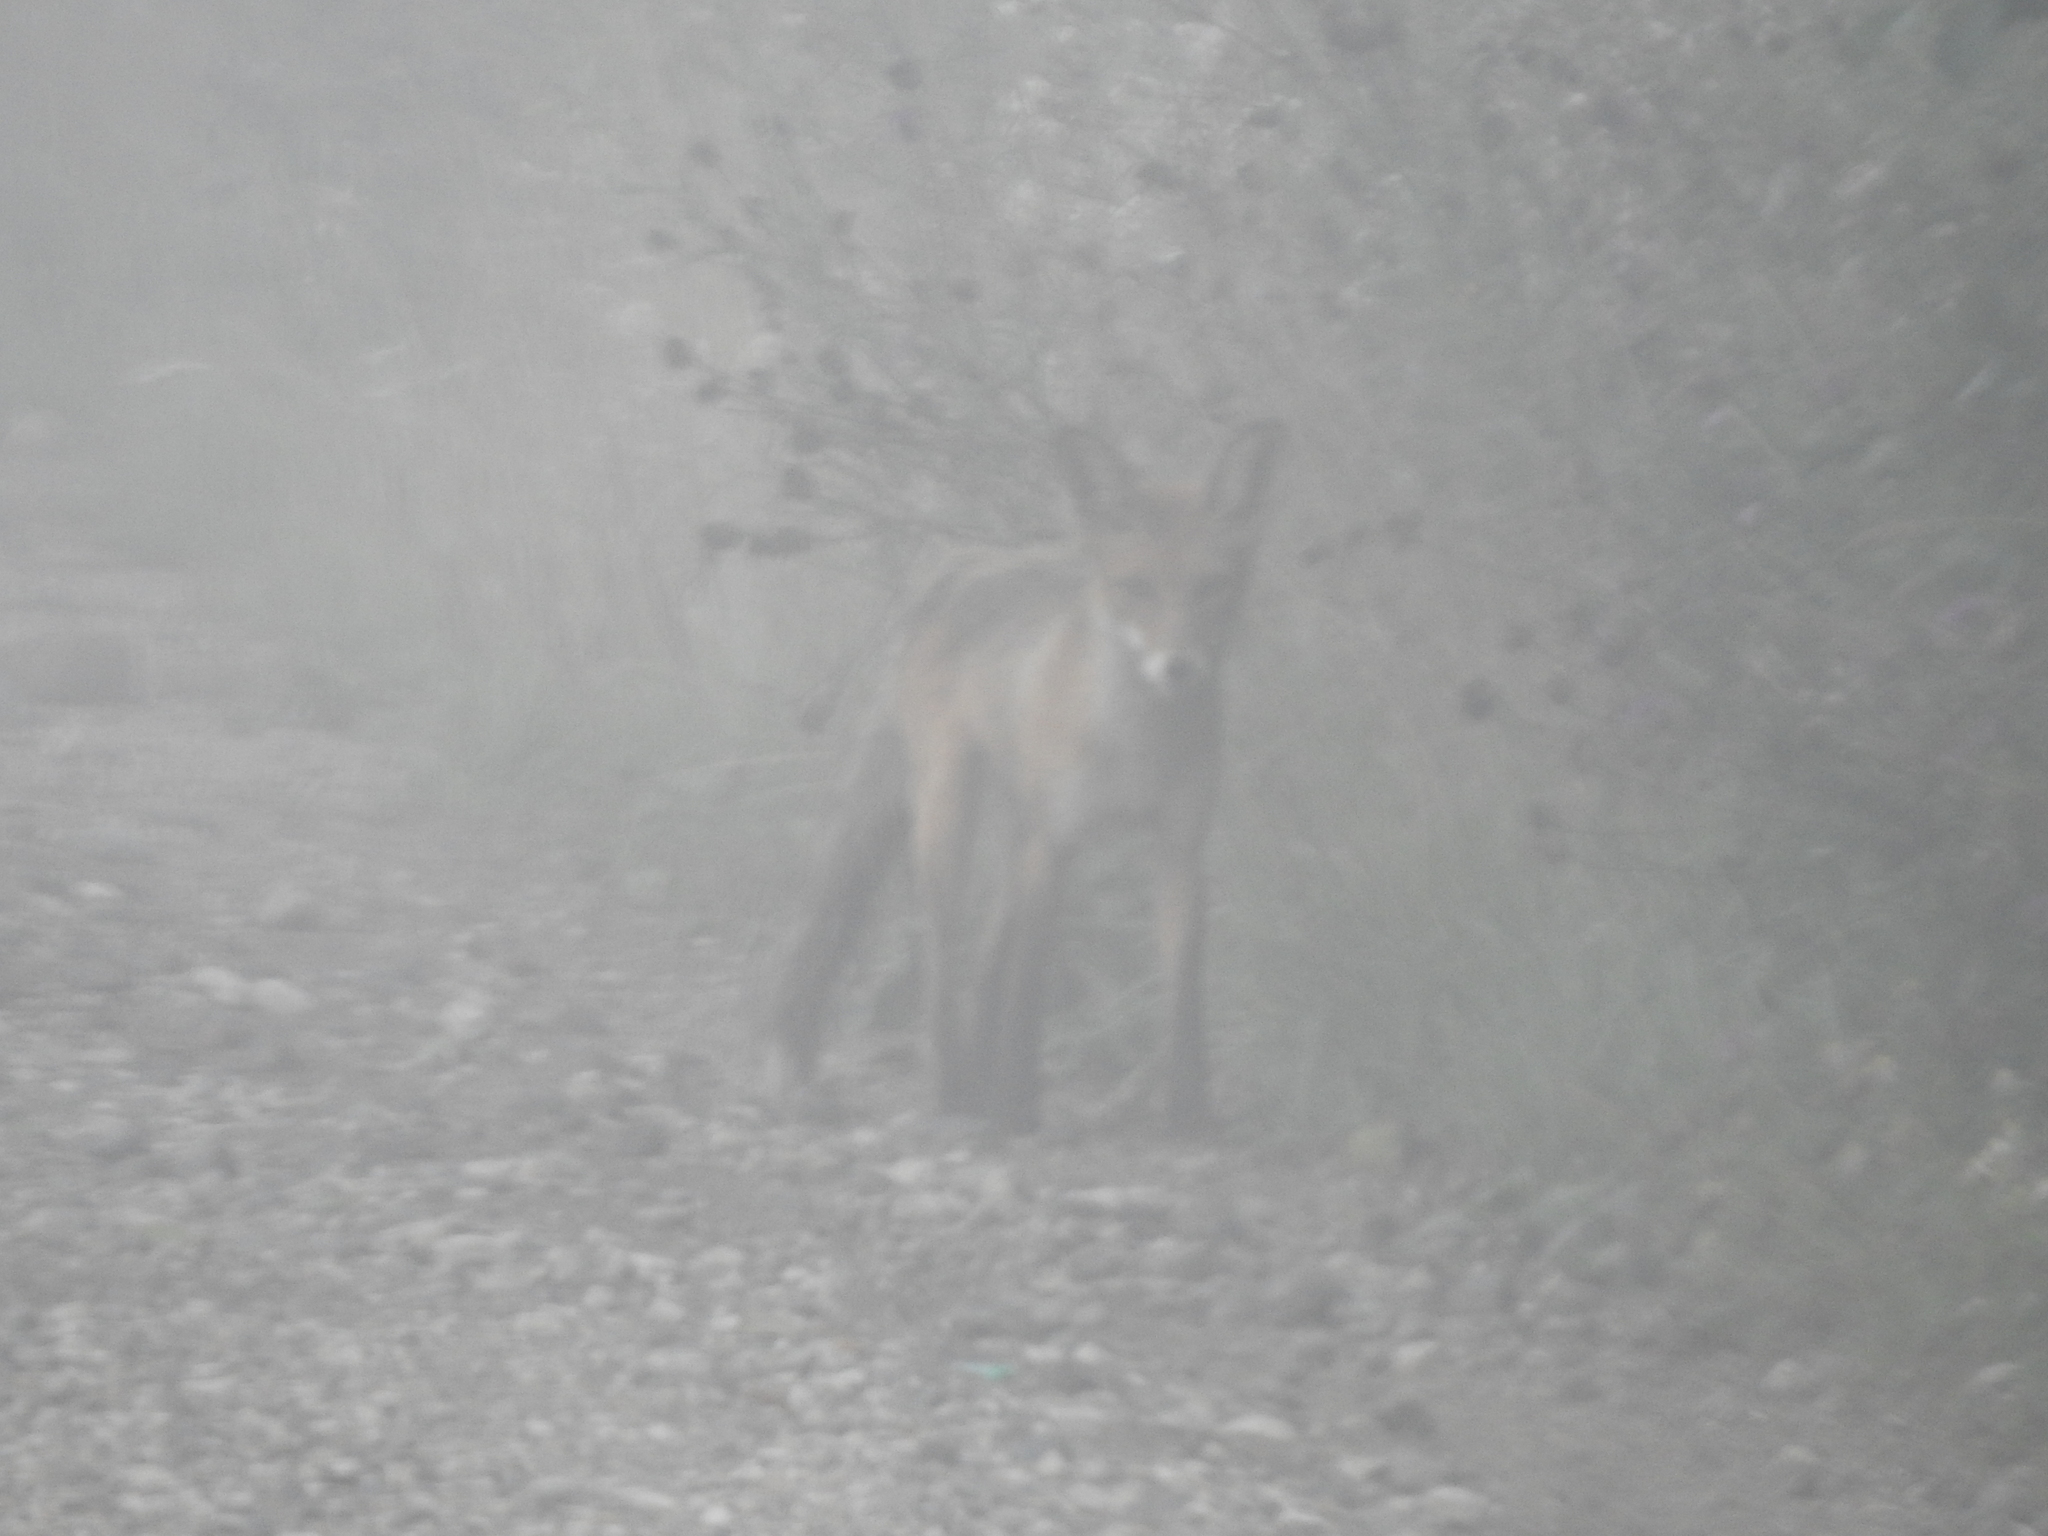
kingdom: Animalia
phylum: Chordata
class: Mammalia
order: Carnivora
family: Canidae
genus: Vulpes
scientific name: Vulpes vulpes
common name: Red fox
